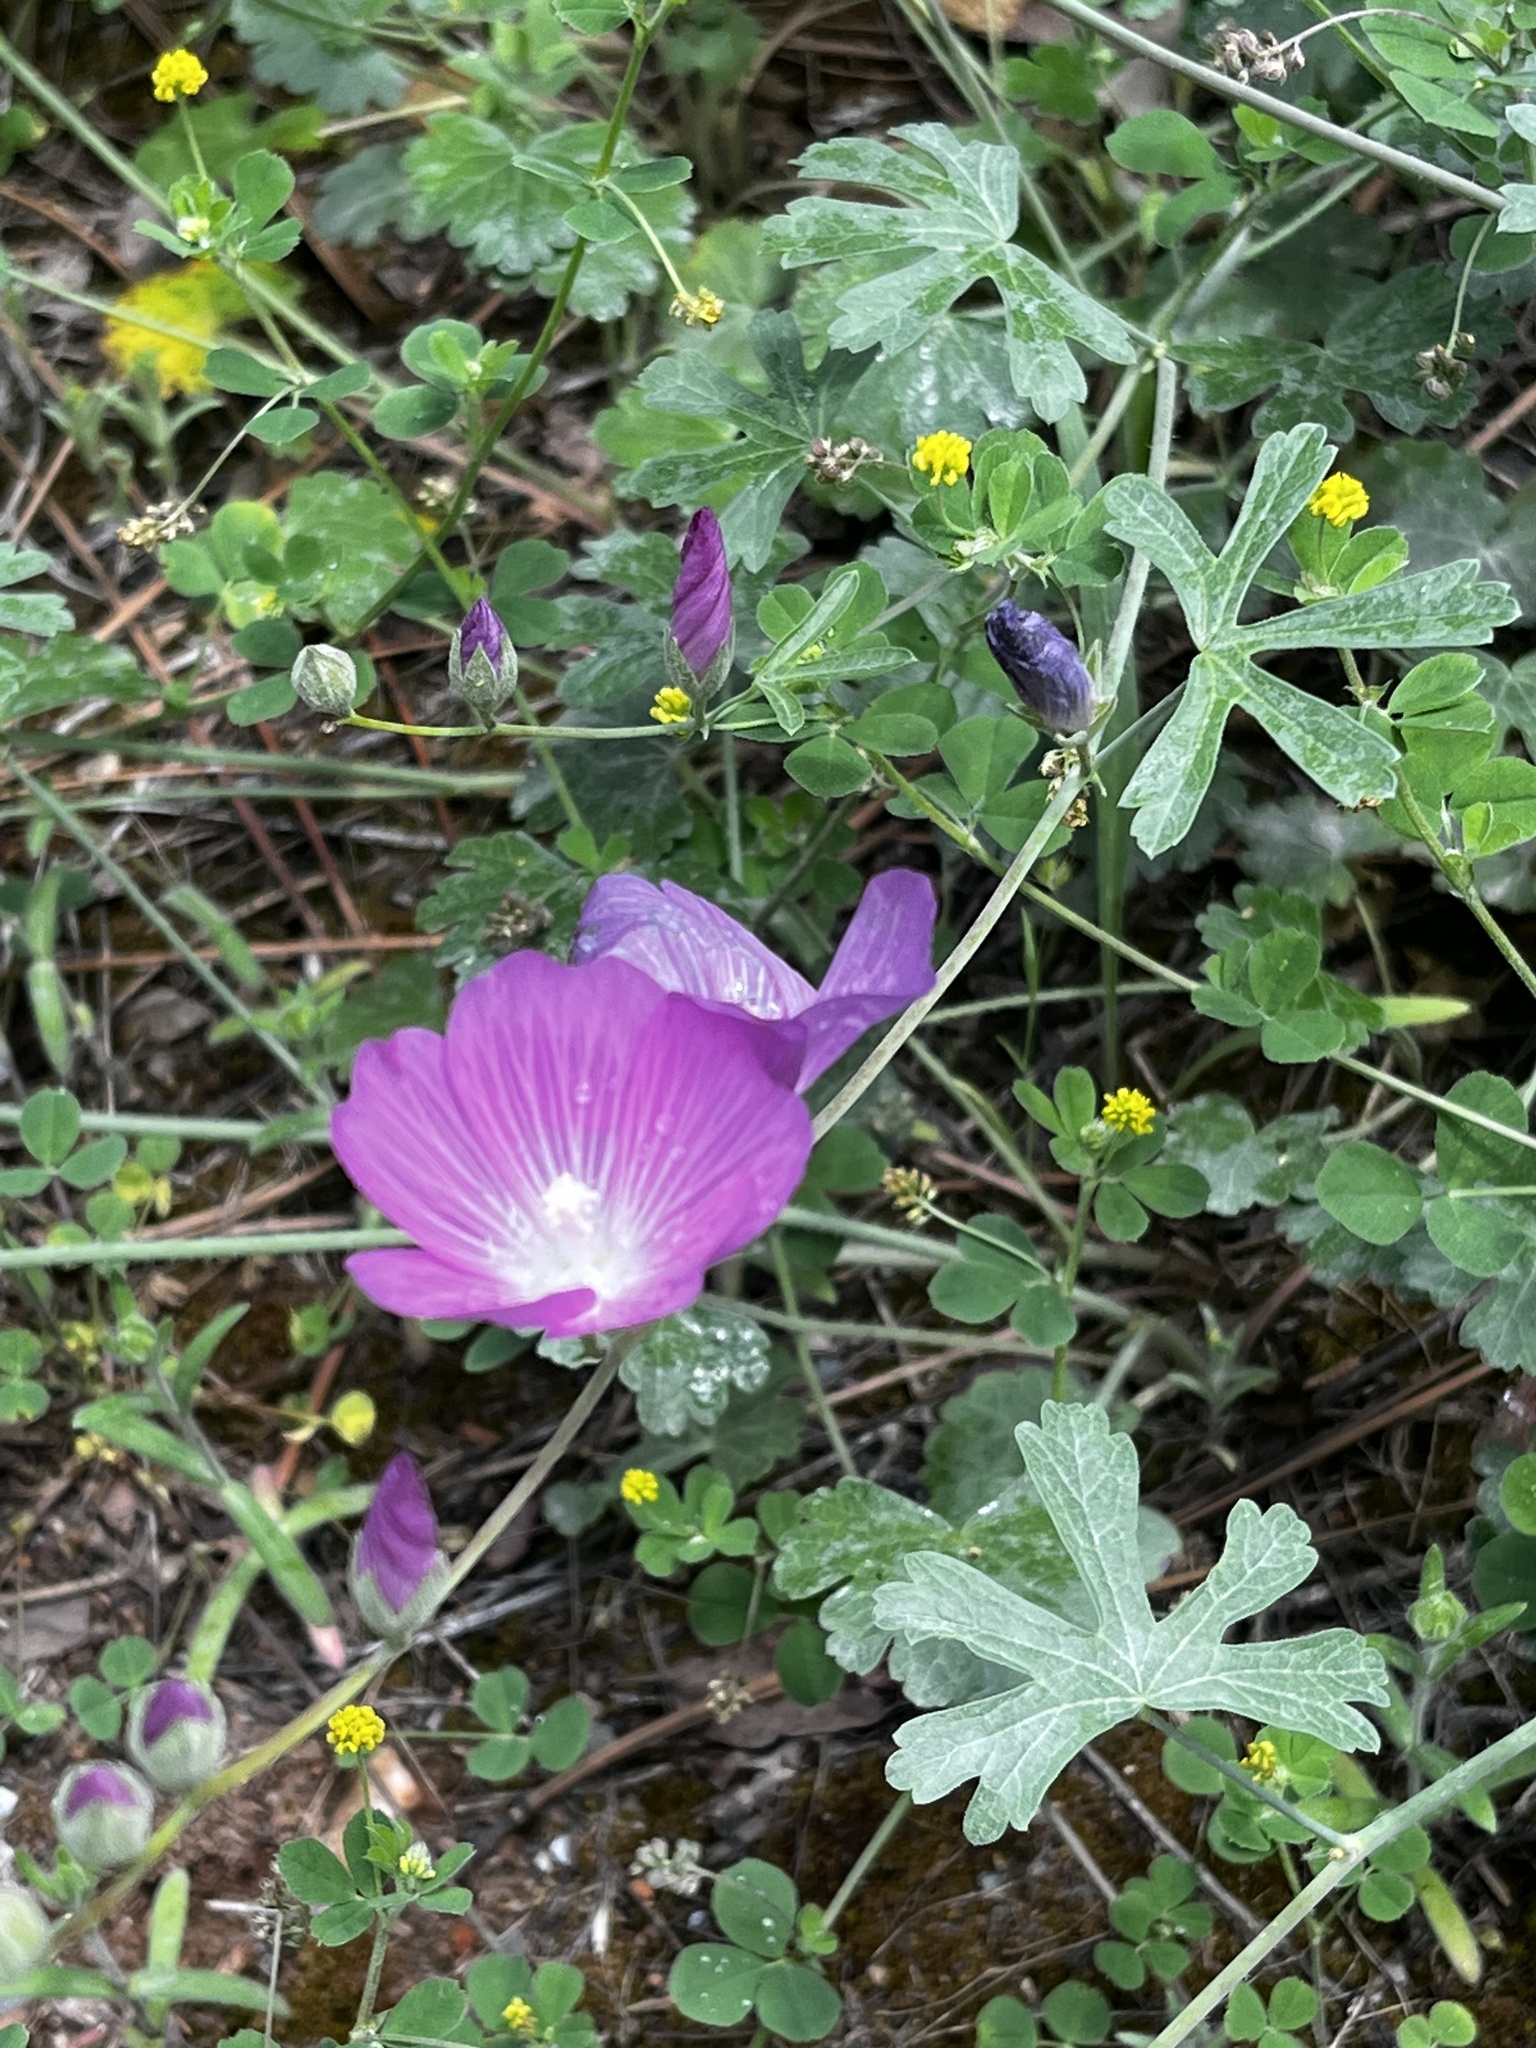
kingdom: Plantae
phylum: Tracheophyta
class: Magnoliopsida
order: Malvales
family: Malvaceae
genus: Sidalcea
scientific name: Sidalcea glaucescens
